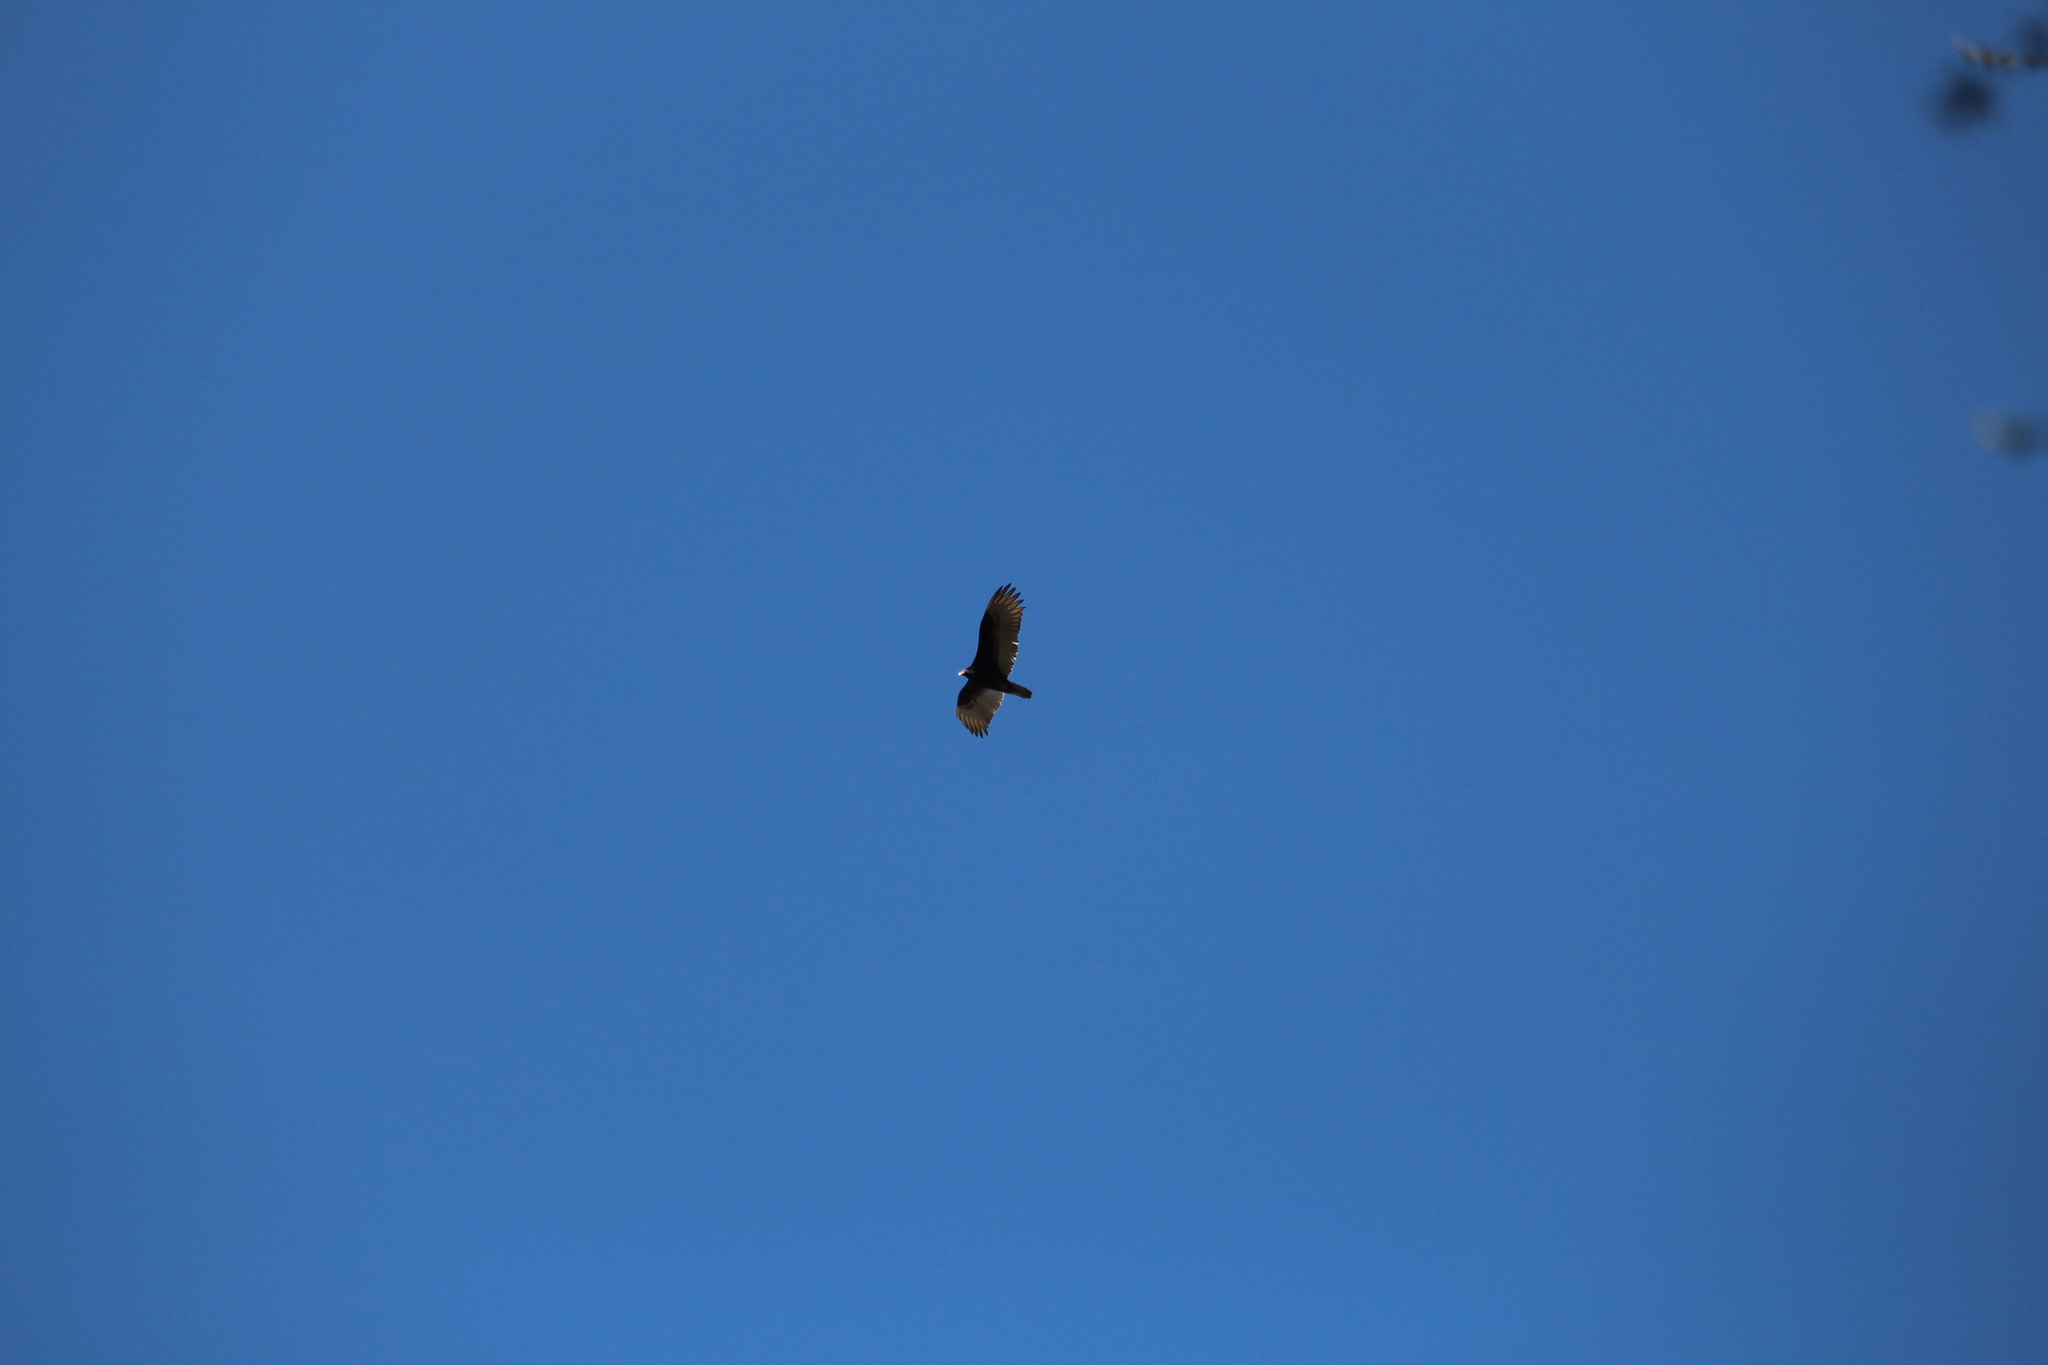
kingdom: Animalia
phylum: Chordata
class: Aves
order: Accipitriformes
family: Cathartidae
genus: Cathartes
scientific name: Cathartes aura
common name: Turkey vulture
